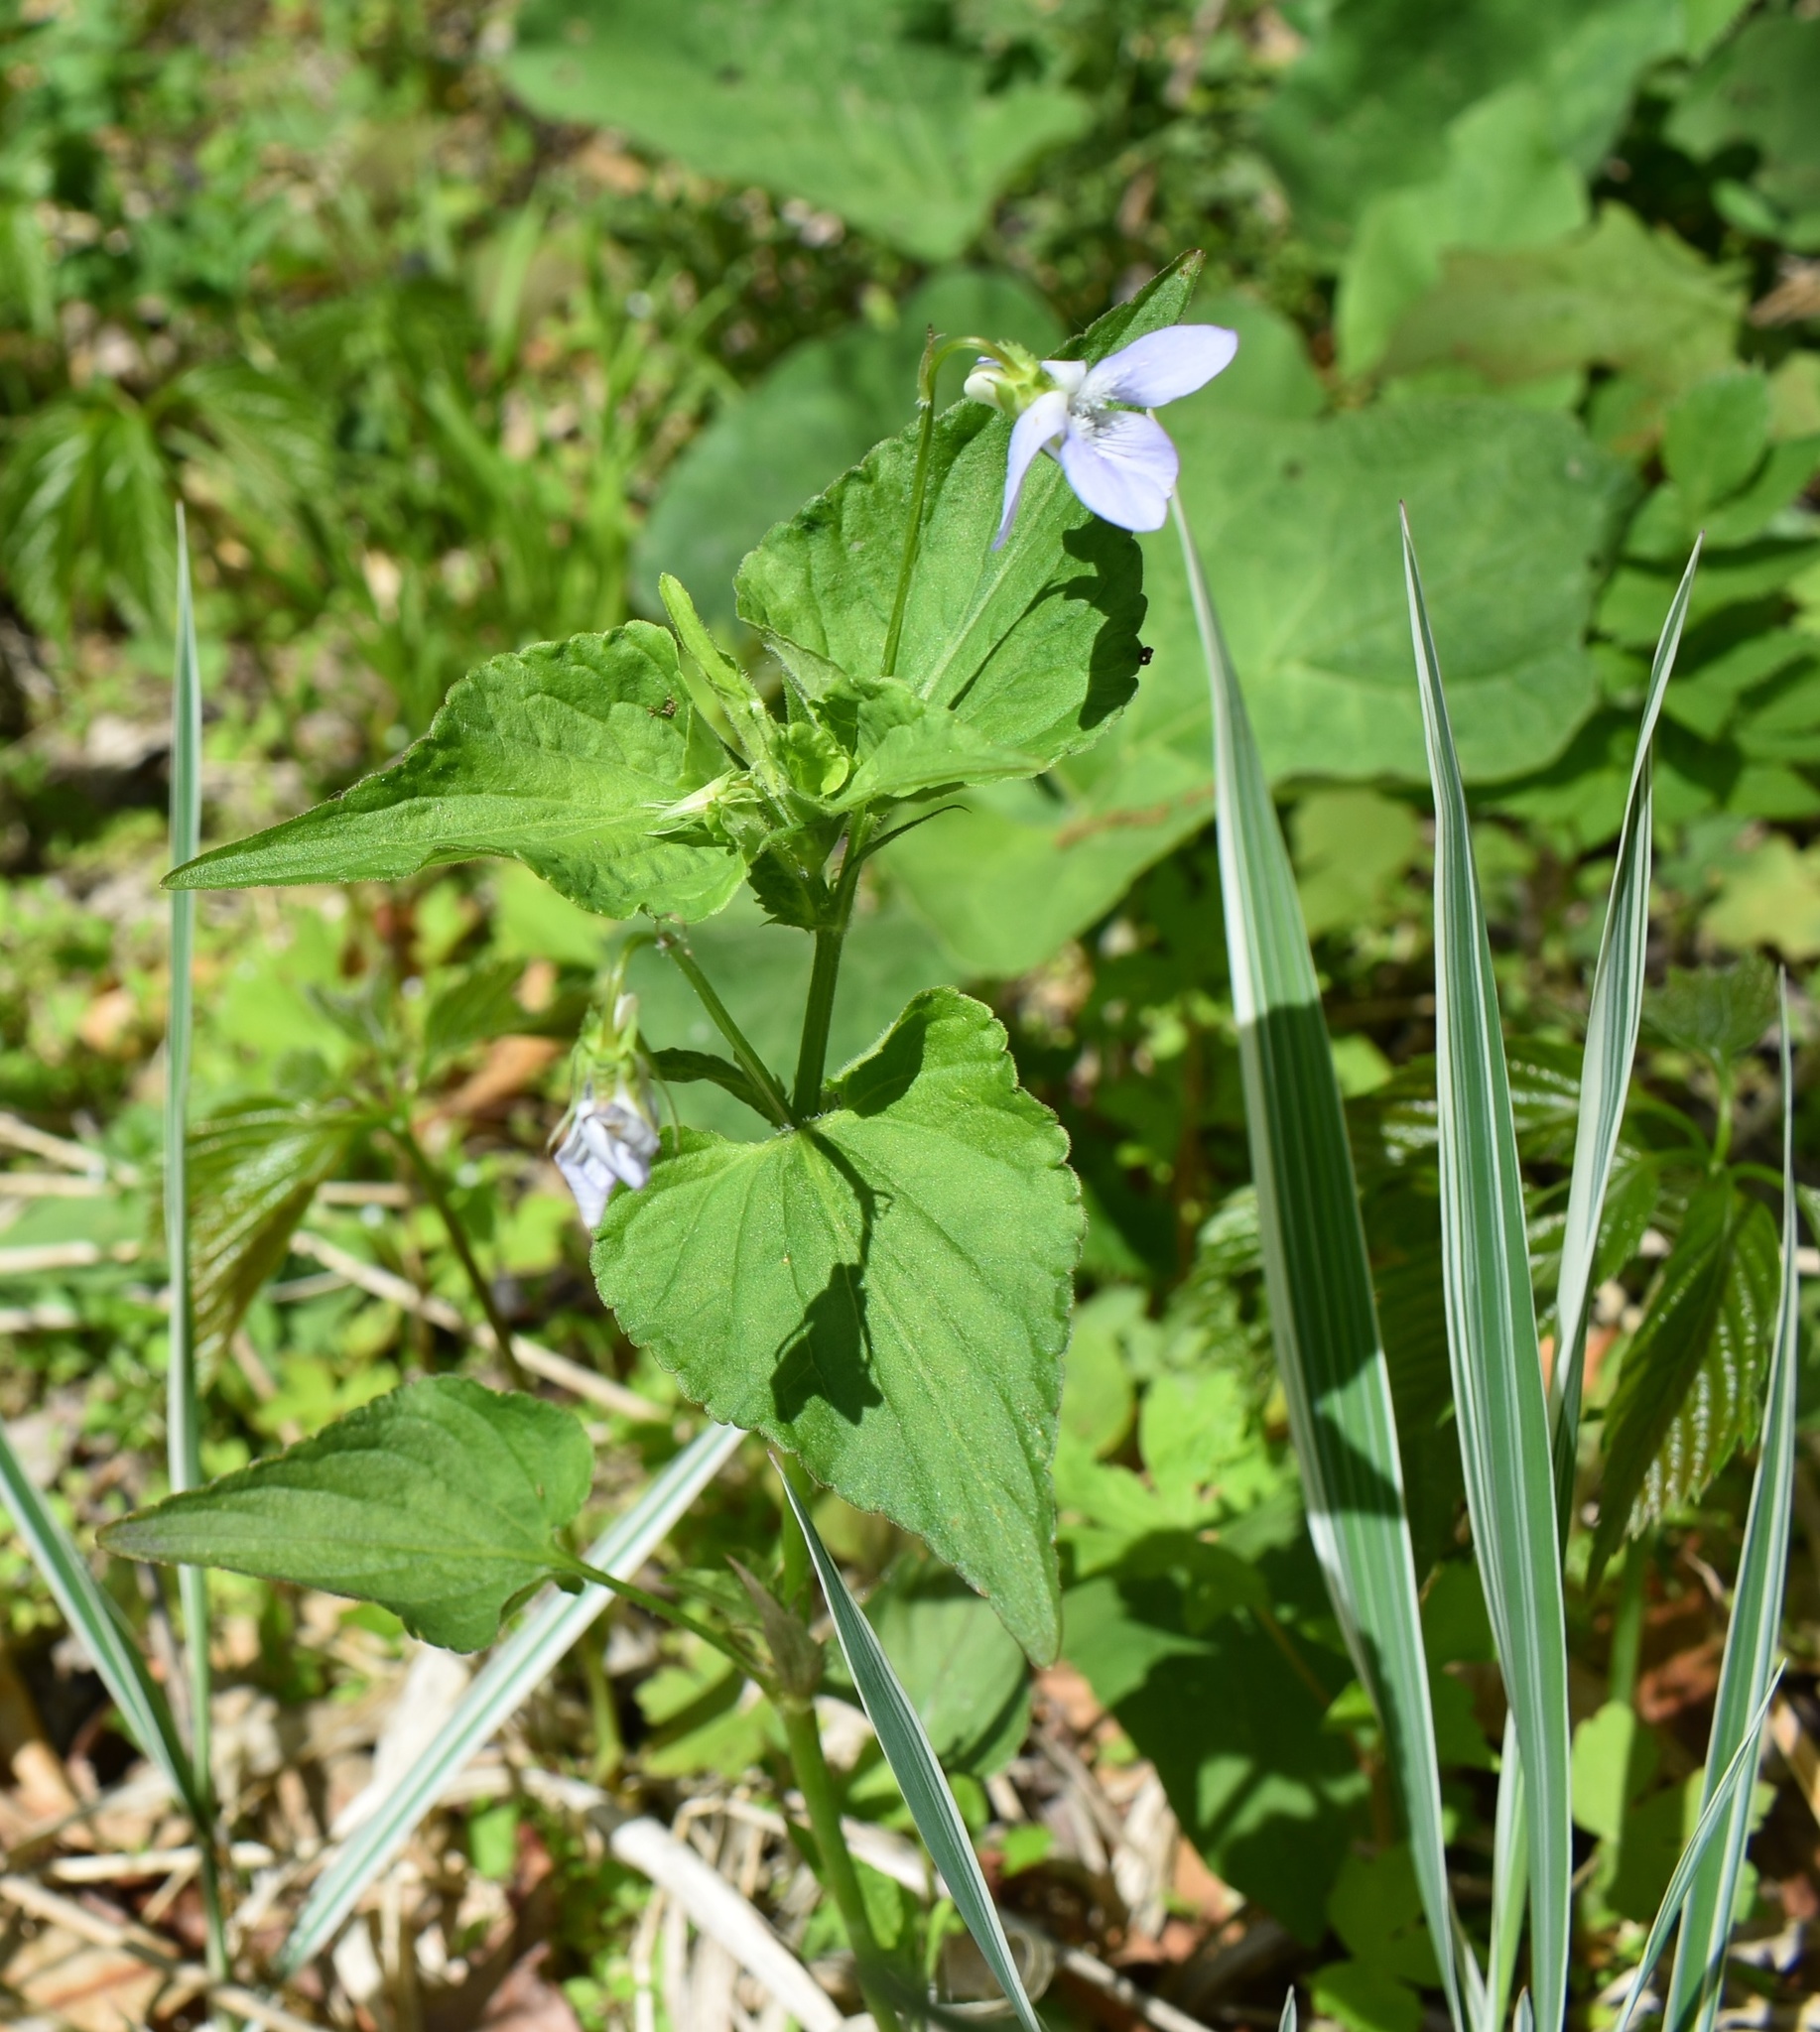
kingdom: Plantae
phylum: Tracheophyta
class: Magnoliopsida
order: Malpighiales
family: Violaceae
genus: Viola
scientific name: Viola acuminata
